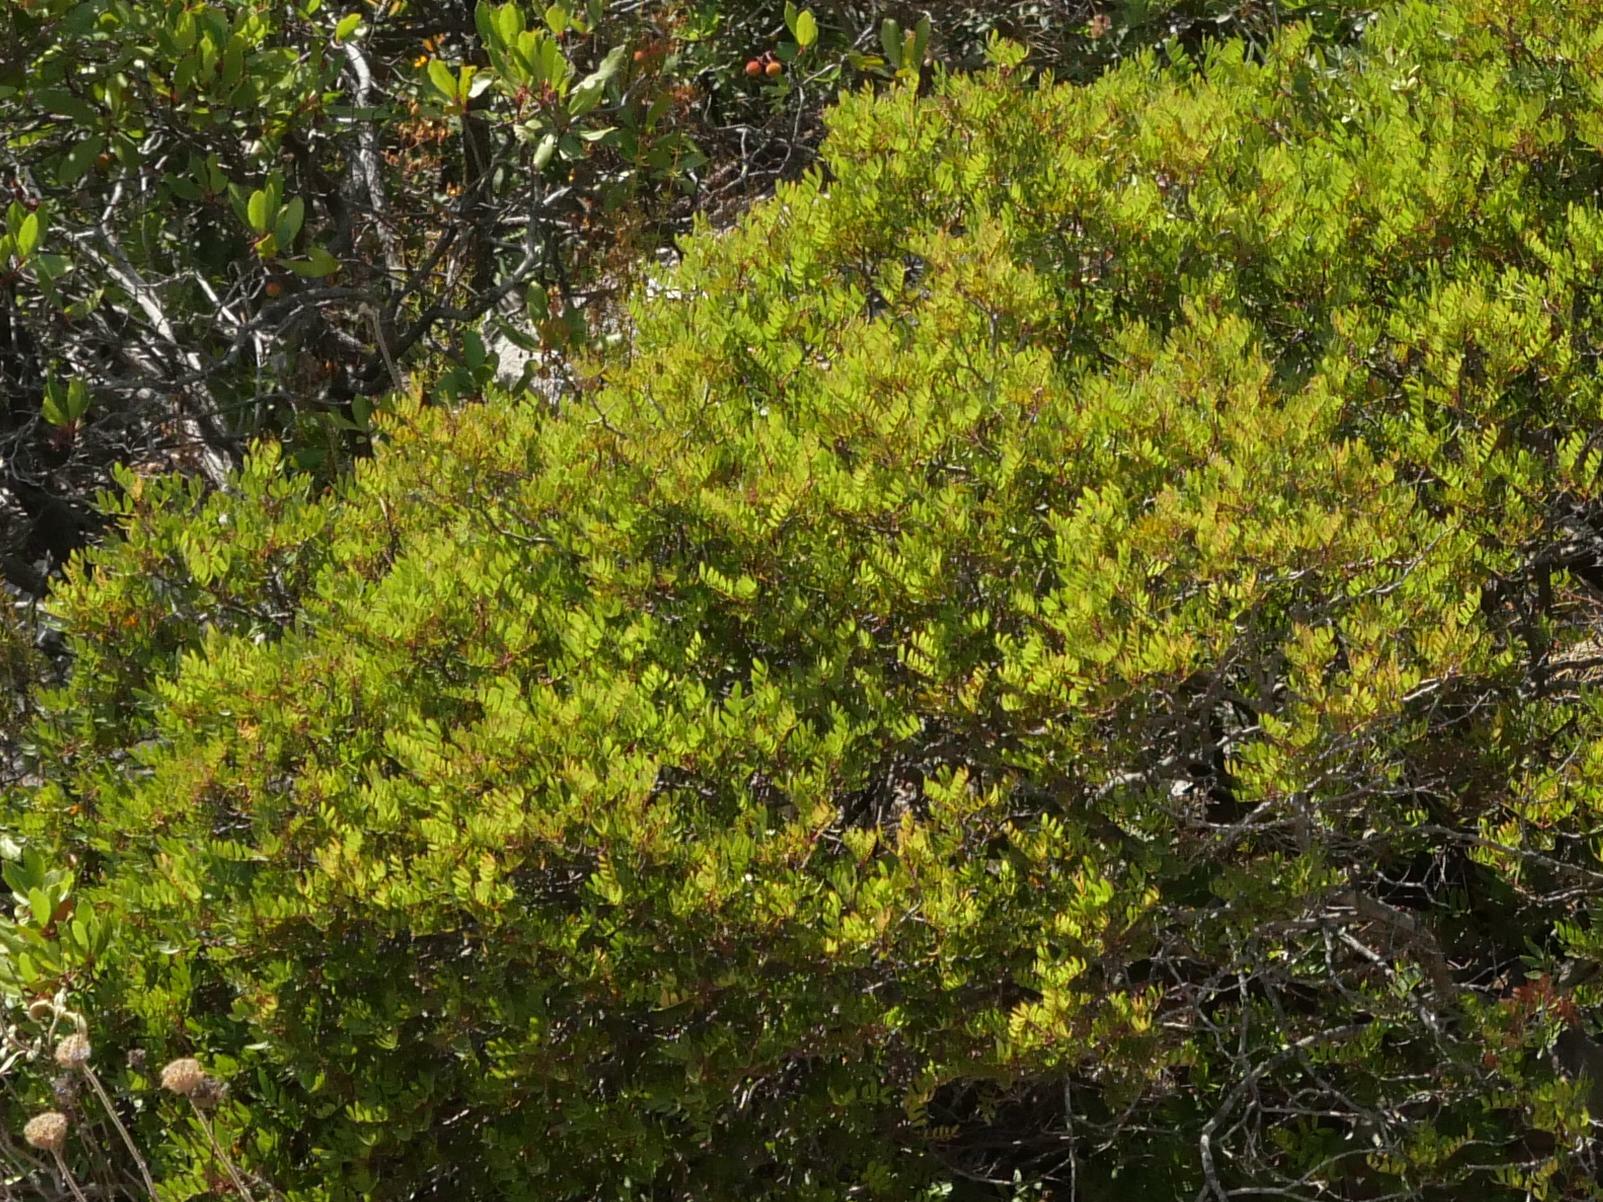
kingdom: Plantae
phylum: Tracheophyta
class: Magnoliopsida
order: Sapindales
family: Anacardiaceae
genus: Pistacia
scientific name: Pistacia lentiscus
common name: Lentisk
